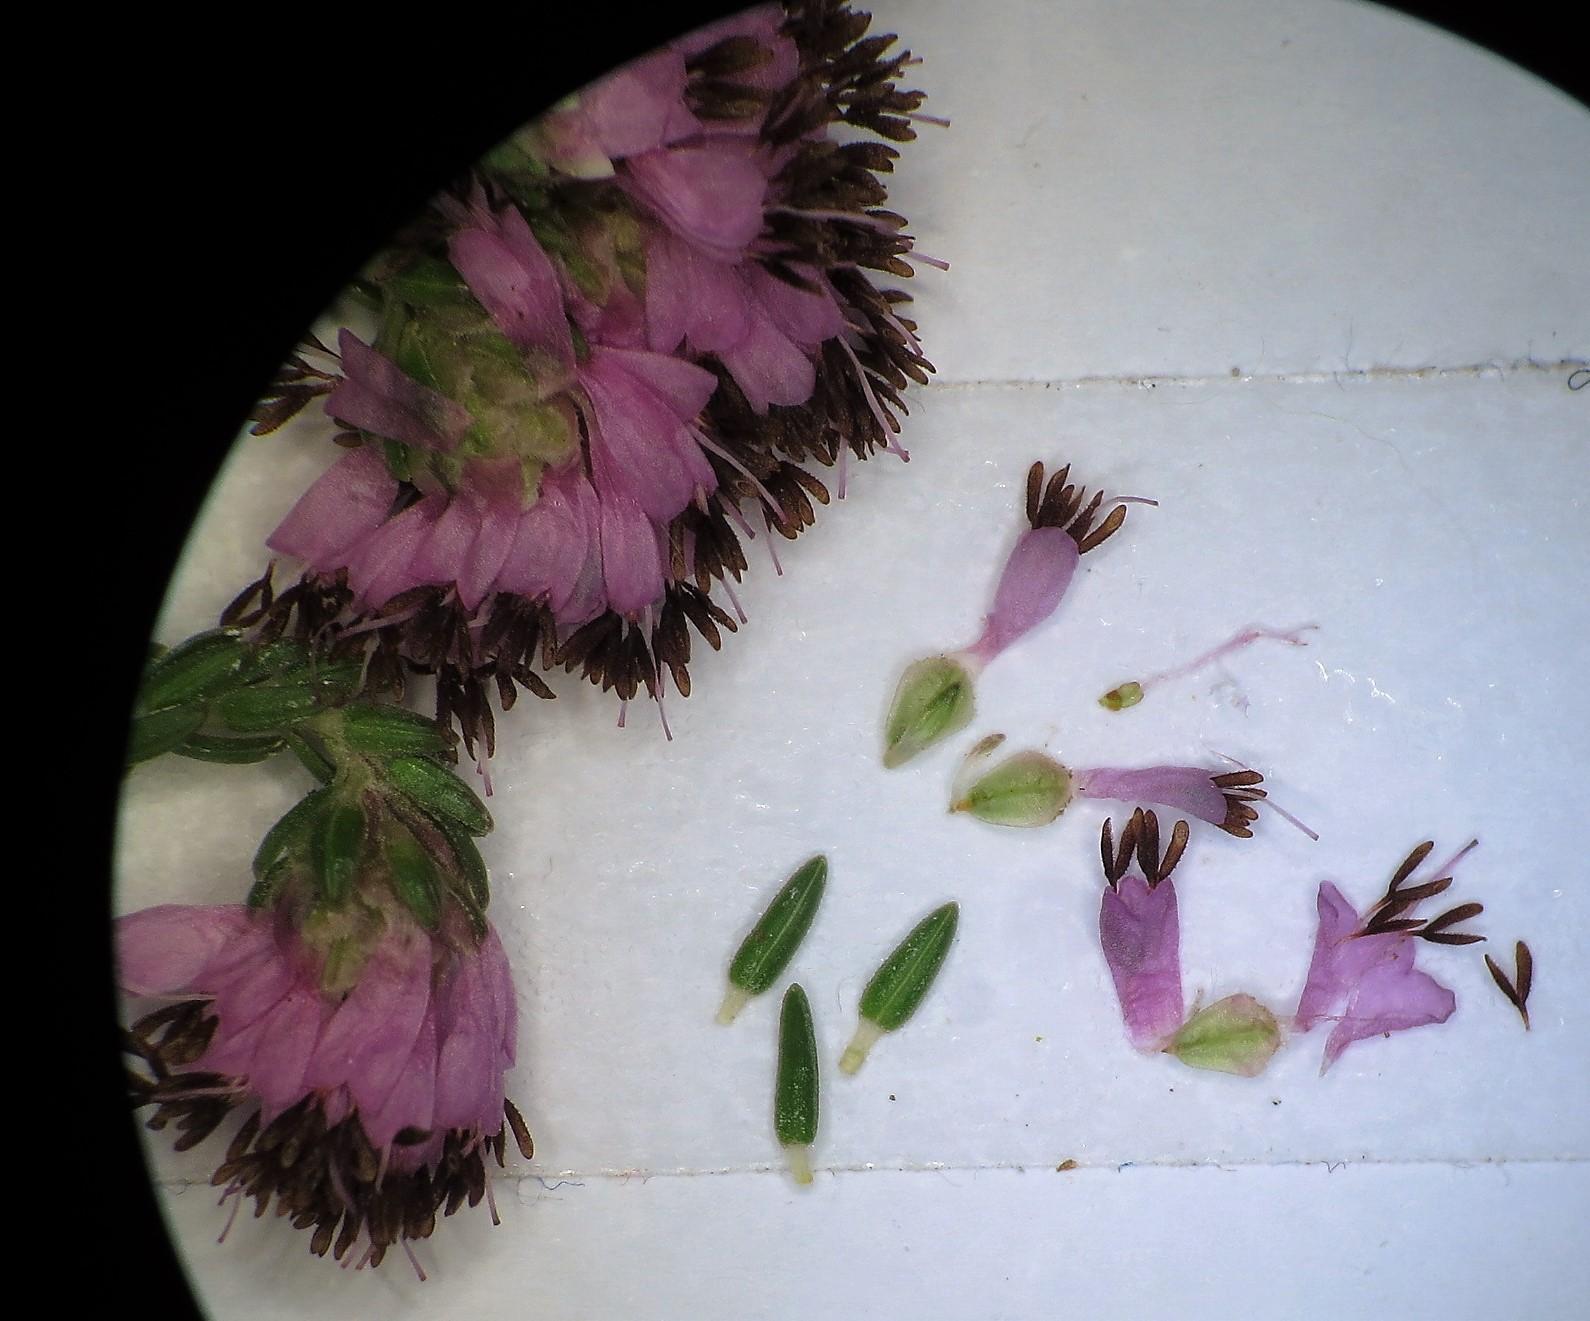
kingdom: Plantae
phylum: Tracheophyta
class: Magnoliopsida
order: Ericales
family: Ericaceae
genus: Erica
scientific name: Erica labialis
